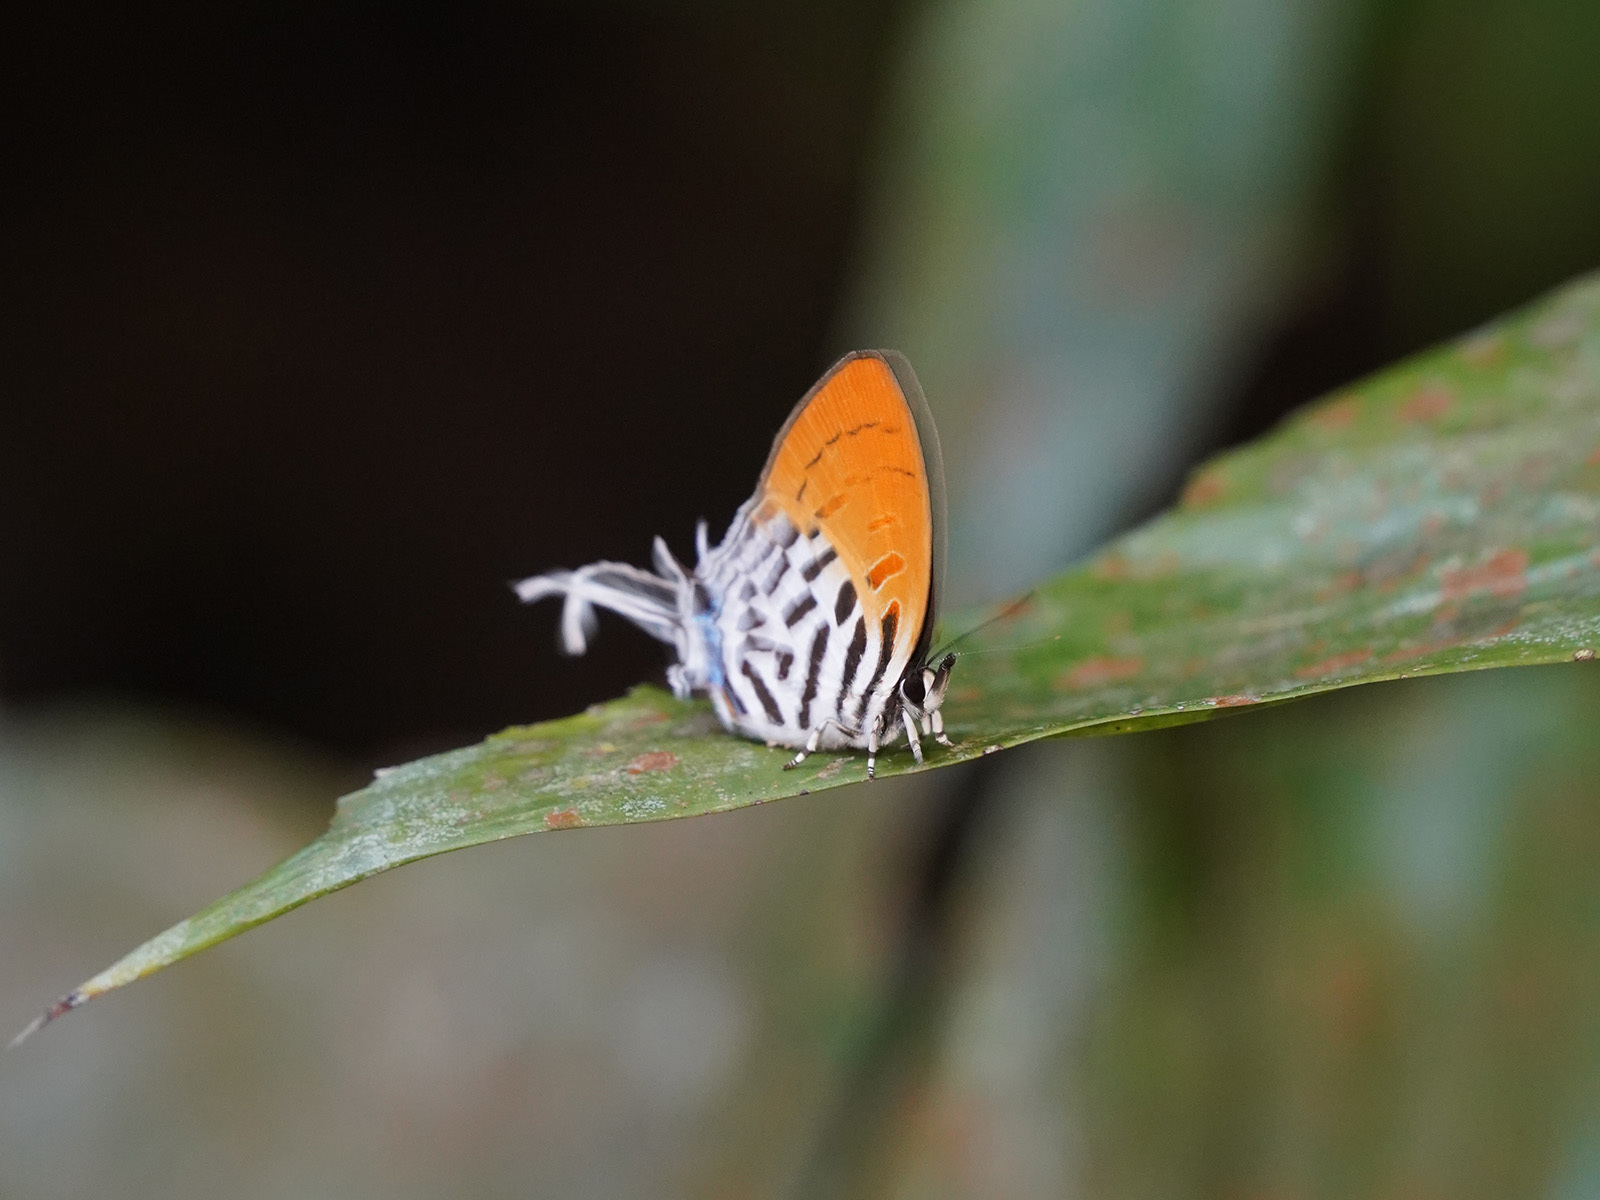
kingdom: Animalia
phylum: Arthropoda
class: Insecta
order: Lepidoptera
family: Lycaenidae
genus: Drupadia
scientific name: Drupadia ravindra
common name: Common posy
